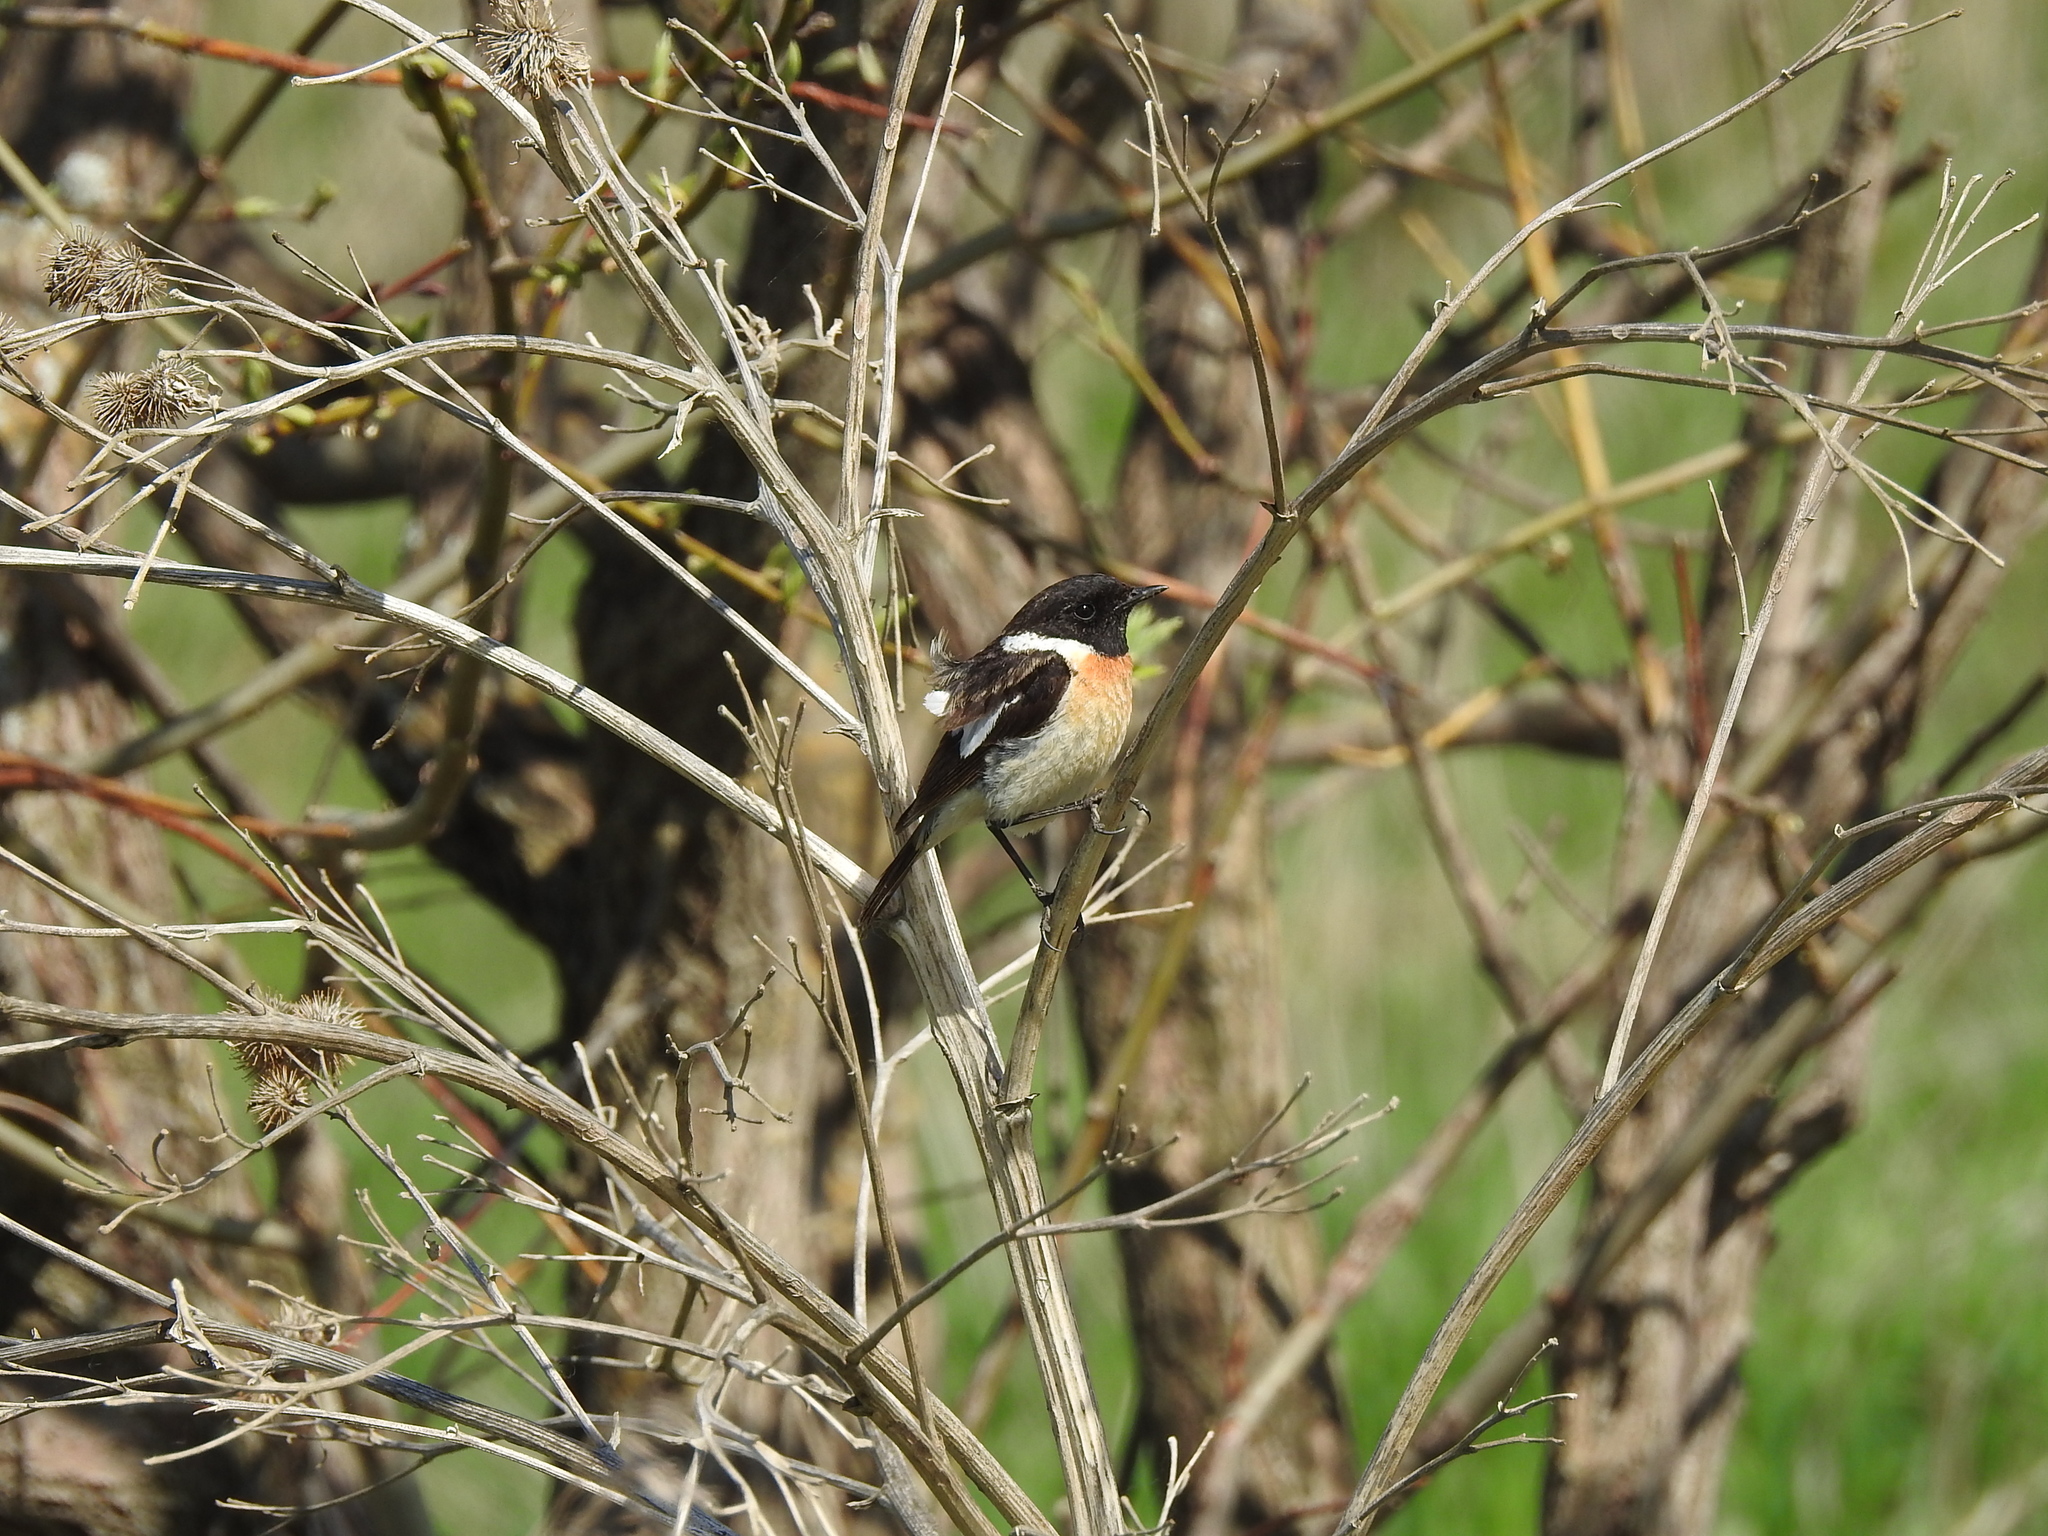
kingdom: Animalia
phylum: Chordata
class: Aves
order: Passeriformes
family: Muscicapidae
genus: Saxicola
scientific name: Saxicola maurus
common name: Siberian stonechat
